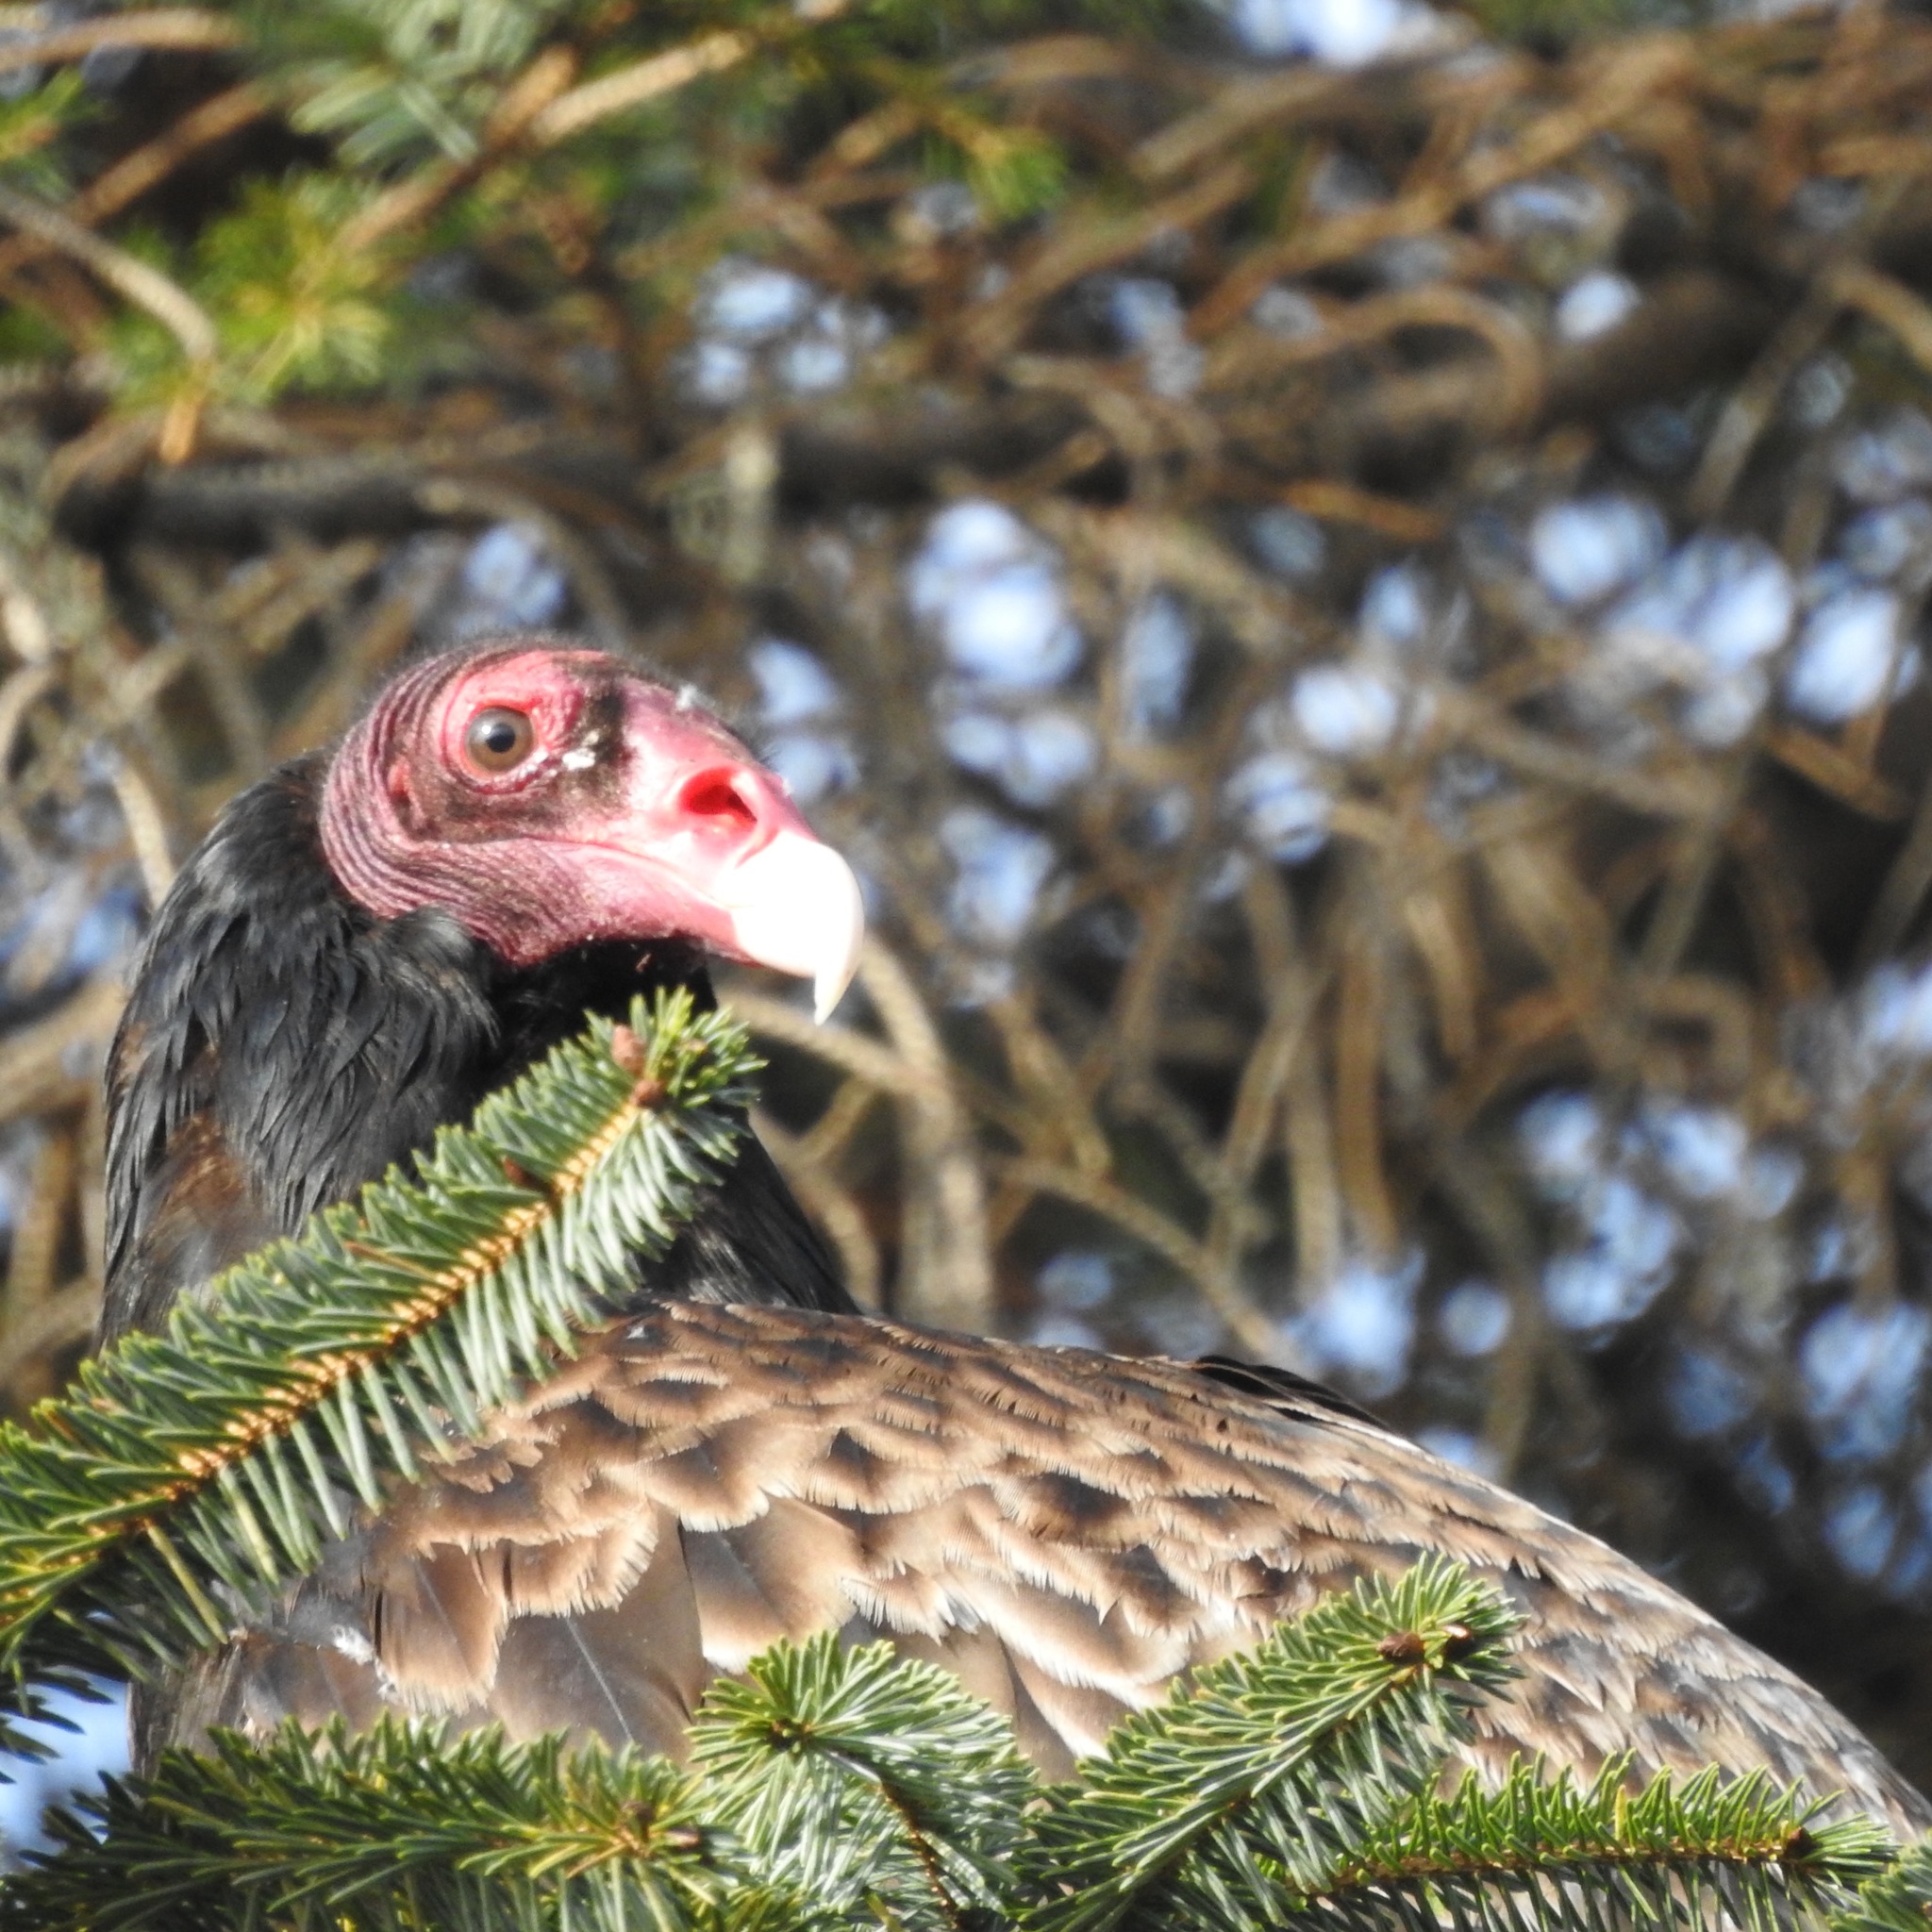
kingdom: Animalia
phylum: Chordata
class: Aves
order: Accipitriformes
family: Cathartidae
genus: Cathartes
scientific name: Cathartes aura
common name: Turkey vulture
